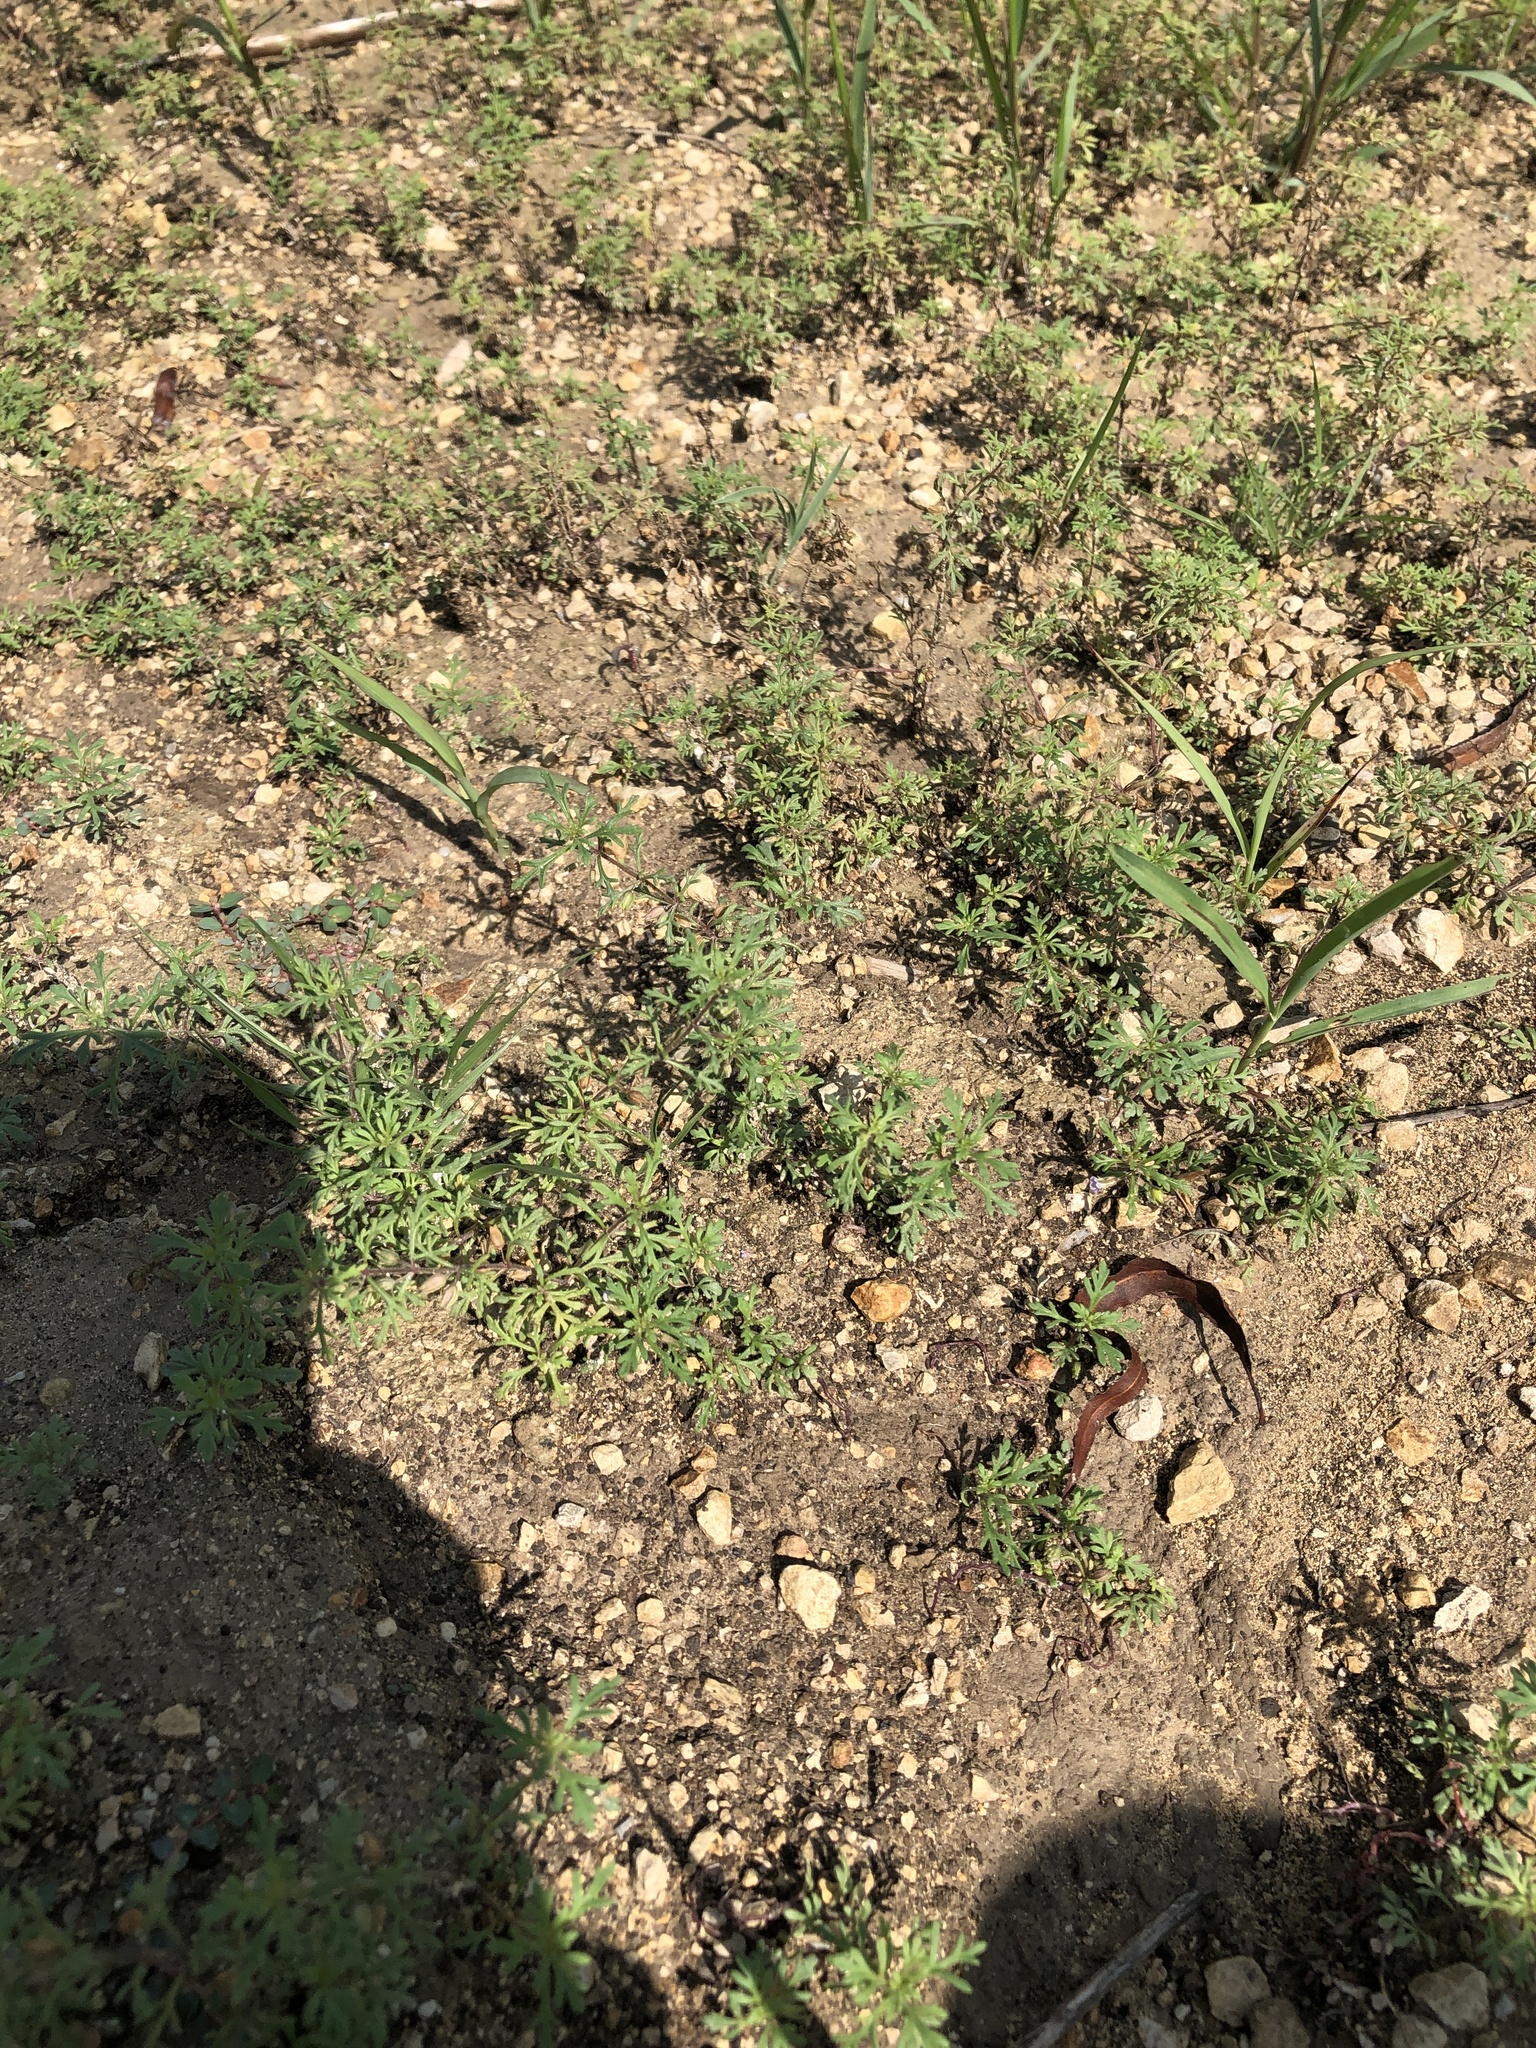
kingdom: Plantae
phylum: Tracheophyta
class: Magnoliopsida
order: Lamiales
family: Plantaginaceae
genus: Leucospora
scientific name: Leucospora multifida
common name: Narrow-leaf paleseed
